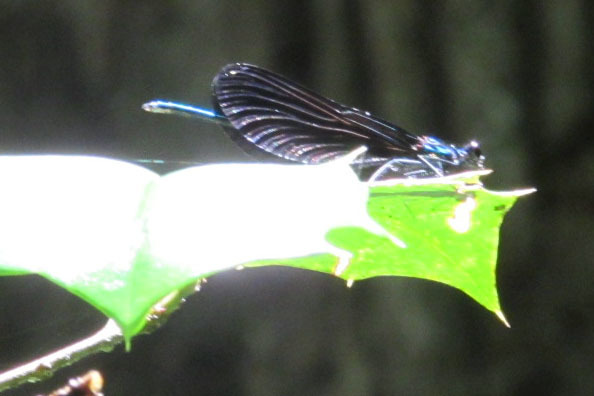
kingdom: Animalia
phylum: Arthropoda
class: Insecta
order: Odonata
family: Calopterygidae
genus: Calopteryx
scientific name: Calopteryx maculata
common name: Ebony jewelwing
